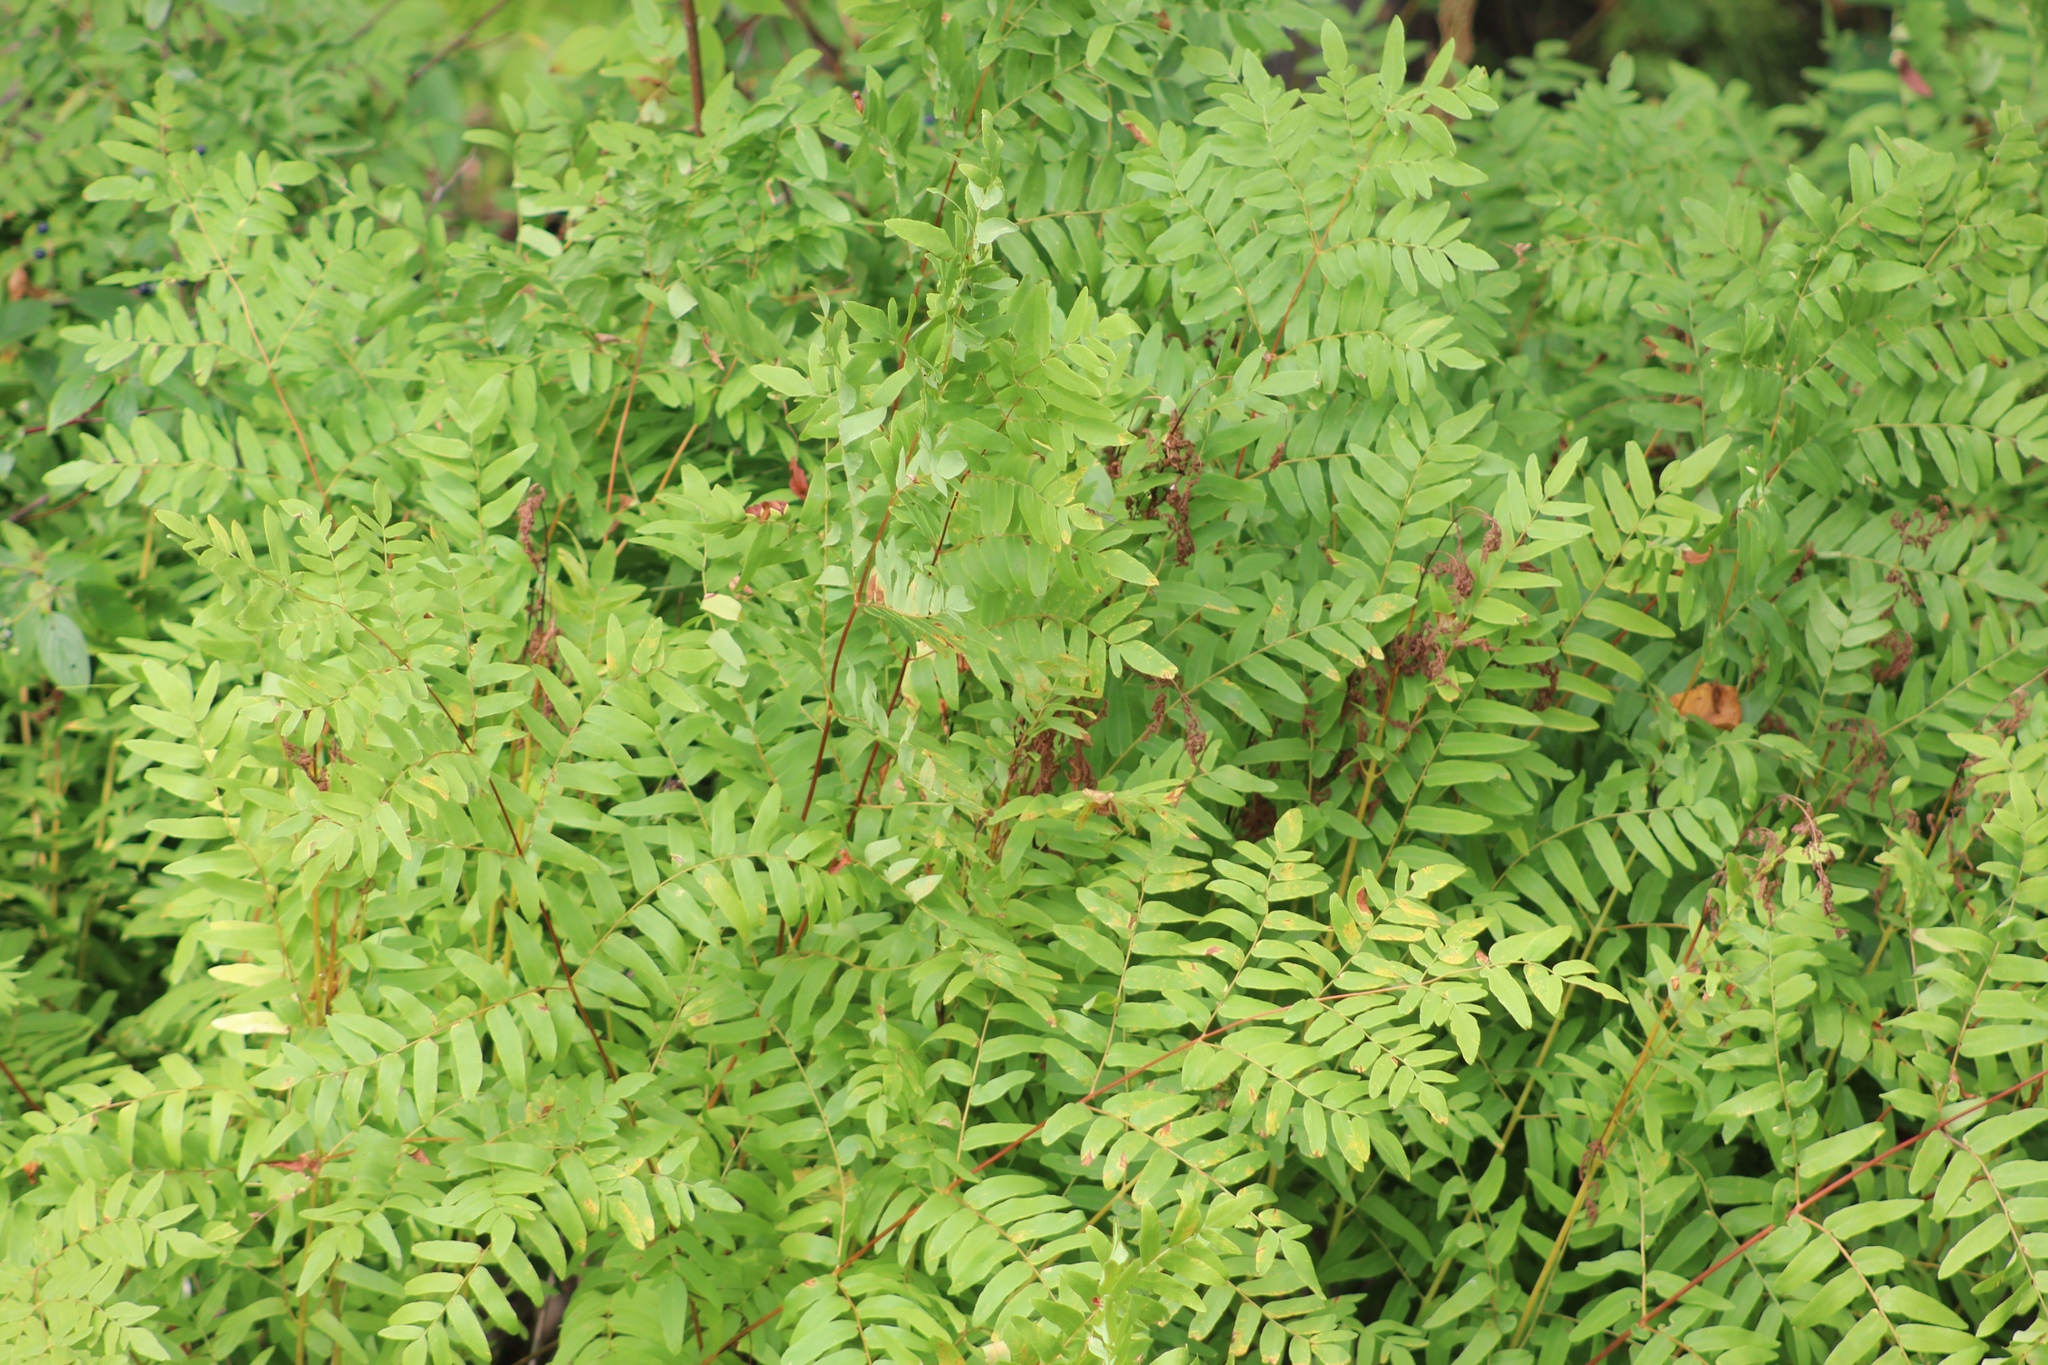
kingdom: Plantae
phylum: Tracheophyta
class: Polypodiopsida
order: Osmundales
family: Osmundaceae
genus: Osmunda
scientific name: Osmunda spectabilis
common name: American royal fern
